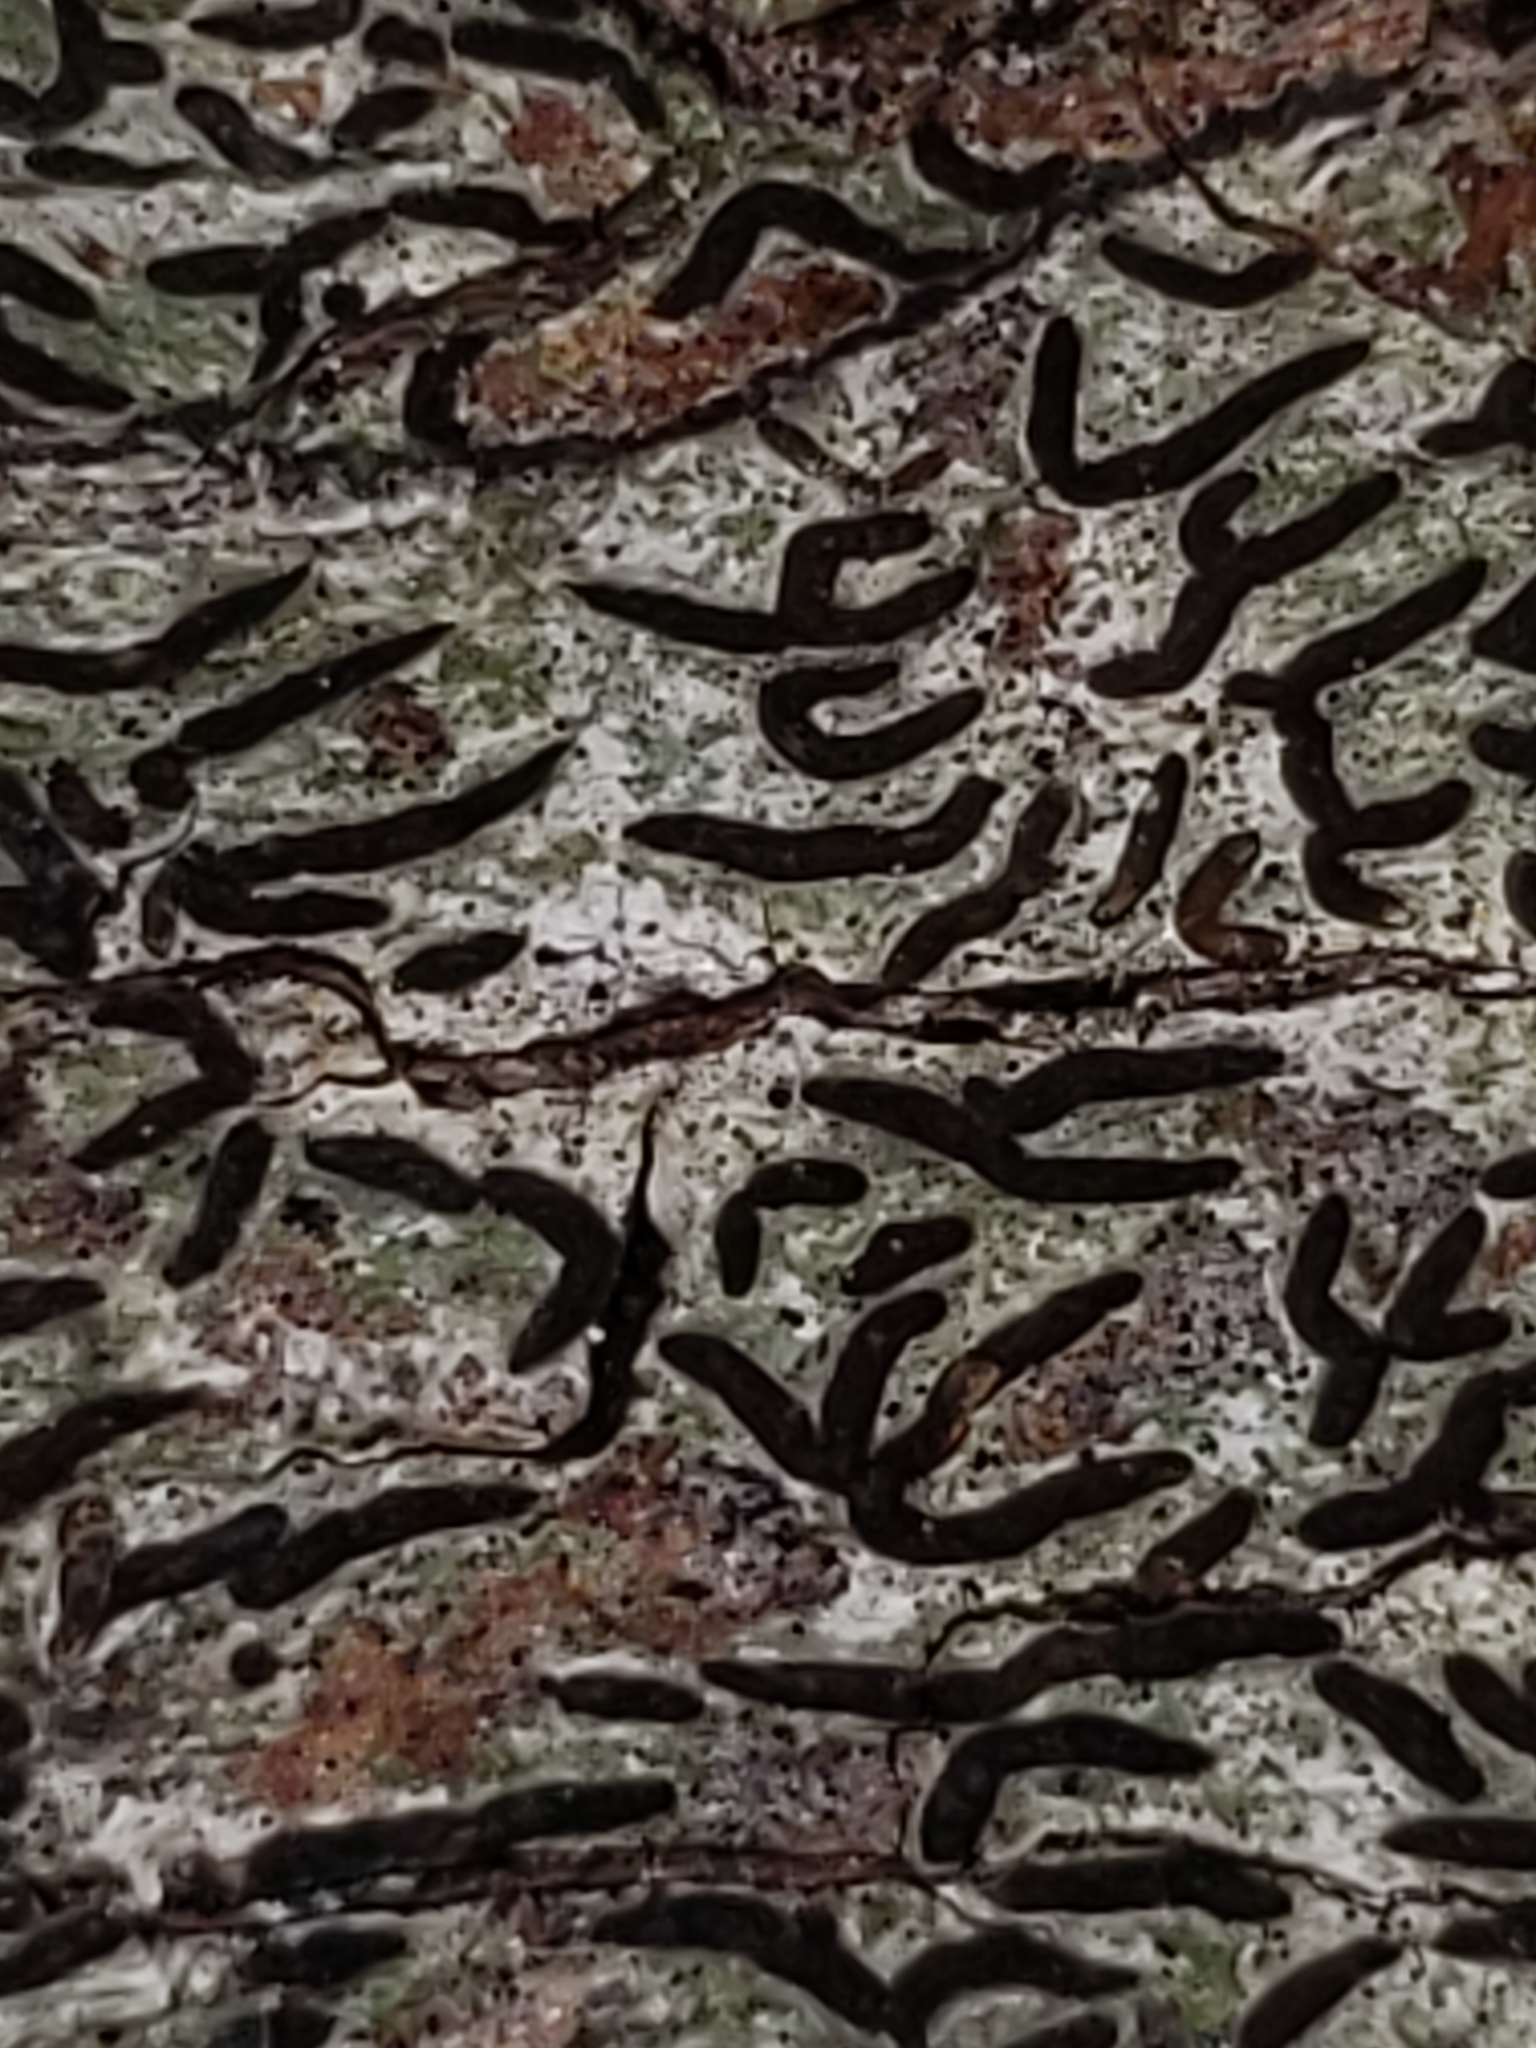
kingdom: Fungi
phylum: Ascomycota
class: Lecanoromycetes
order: Ostropales
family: Graphidaceae
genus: Graphis
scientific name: Graphis scripta
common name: Script lichen
